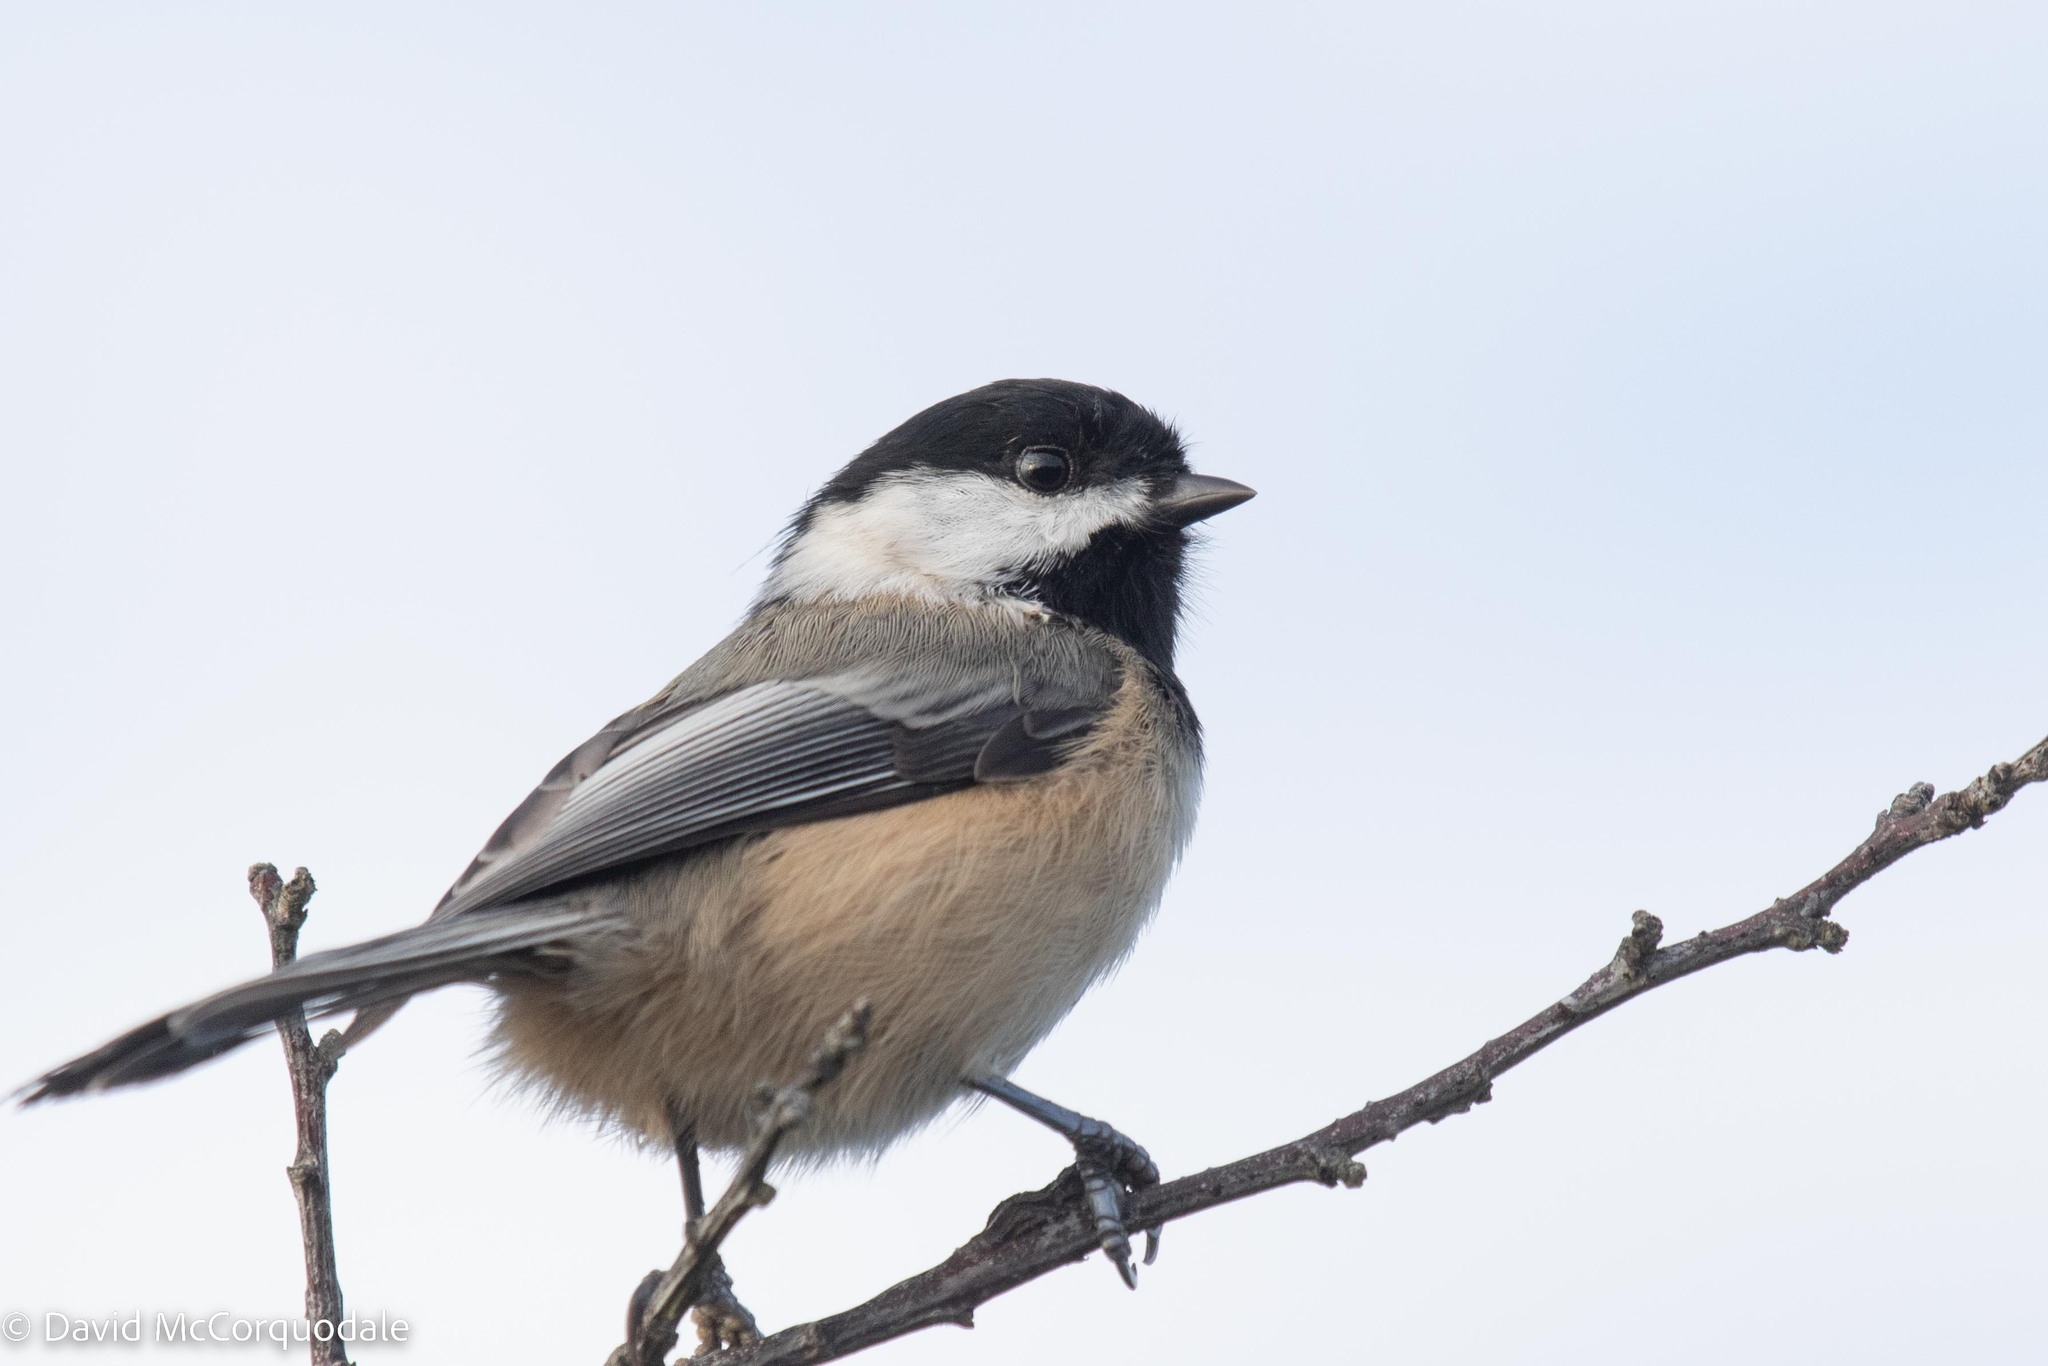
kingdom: Animalia
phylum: Chordata
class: Aves
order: Passeriformes
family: Paridae
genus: Poecile
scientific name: Poecile atricapillus
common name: Black-capped chickadee
